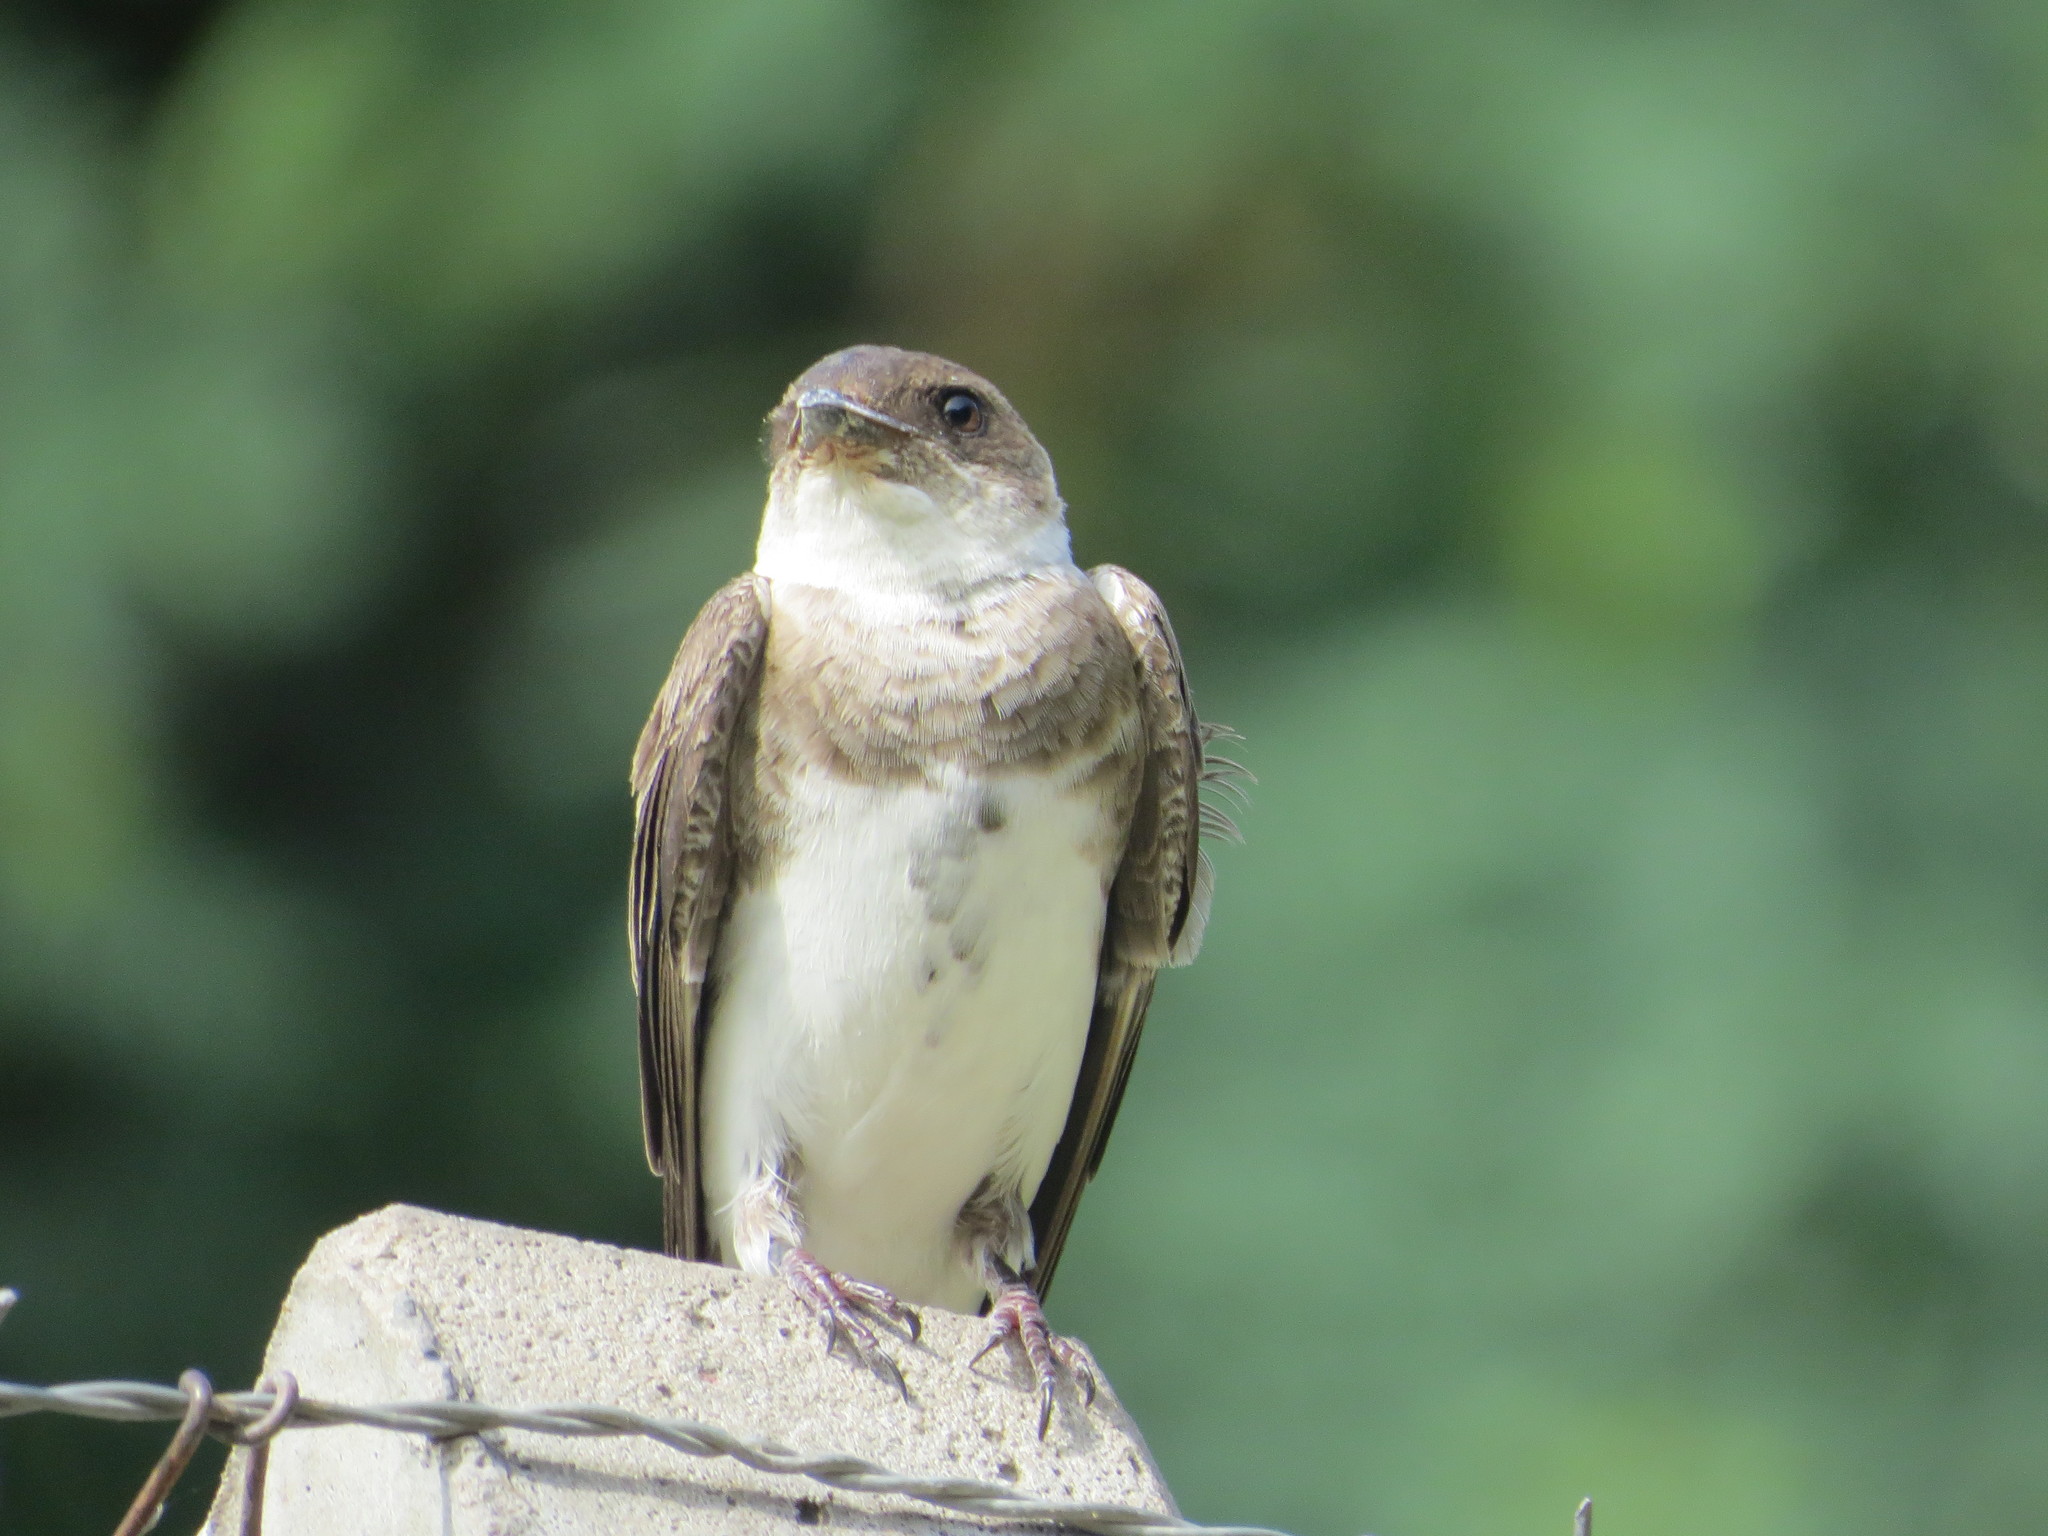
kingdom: Animalia
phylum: Chordata
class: Aves
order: Passeriformes
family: Hirundinidae
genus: Progne
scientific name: Progne tapera
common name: Brown-chested martin
